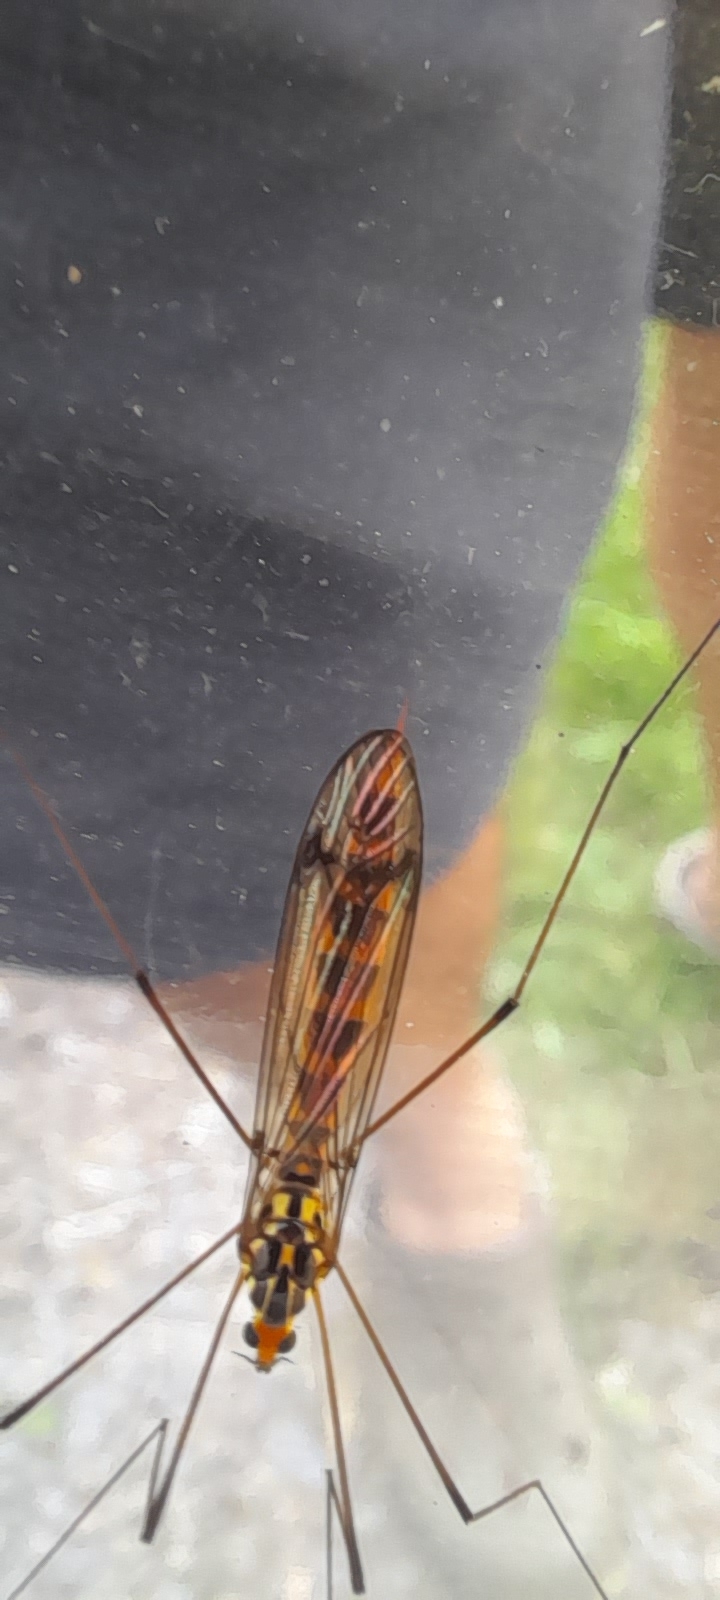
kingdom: Animalia
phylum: Arthropoda
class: Insecta
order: Diptera
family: Tipulidae
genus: Nephrotoma
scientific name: Nephrotoma flavipalpis
